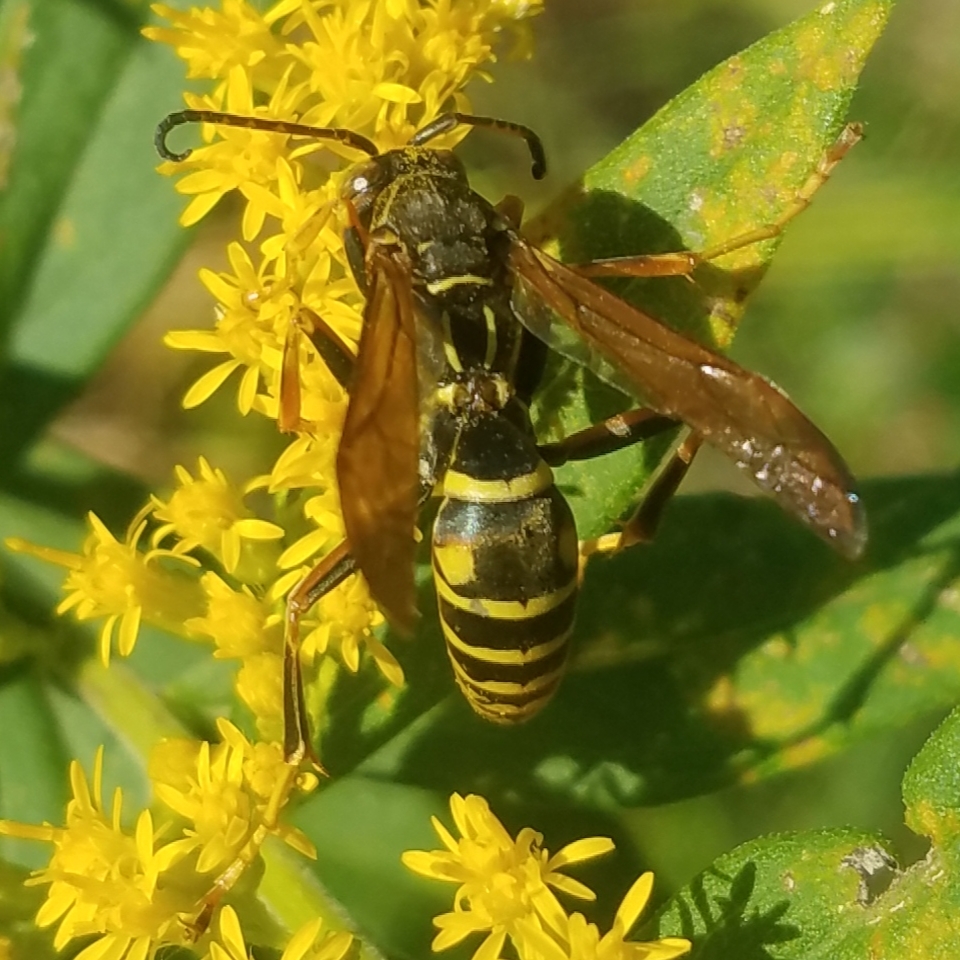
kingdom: Animalia
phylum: Arthropoda
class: Insecta
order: Hymenoptera
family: Eumenidae
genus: Polistes
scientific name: Polistes fuscatus
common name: Dark paper wasp
